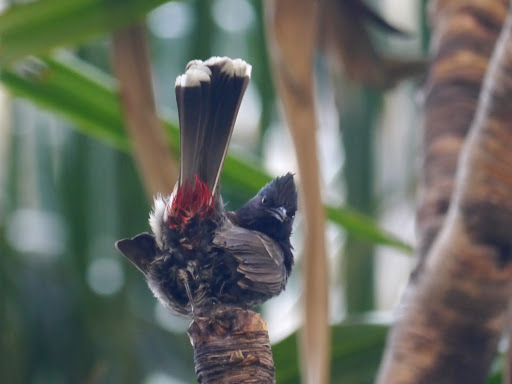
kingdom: Animalia
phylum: Chordata
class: Aves
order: Passeriformes
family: Pycnonotidae
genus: Pycnonotus
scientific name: Pycnonotus cafer
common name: Red-vented bulbul
